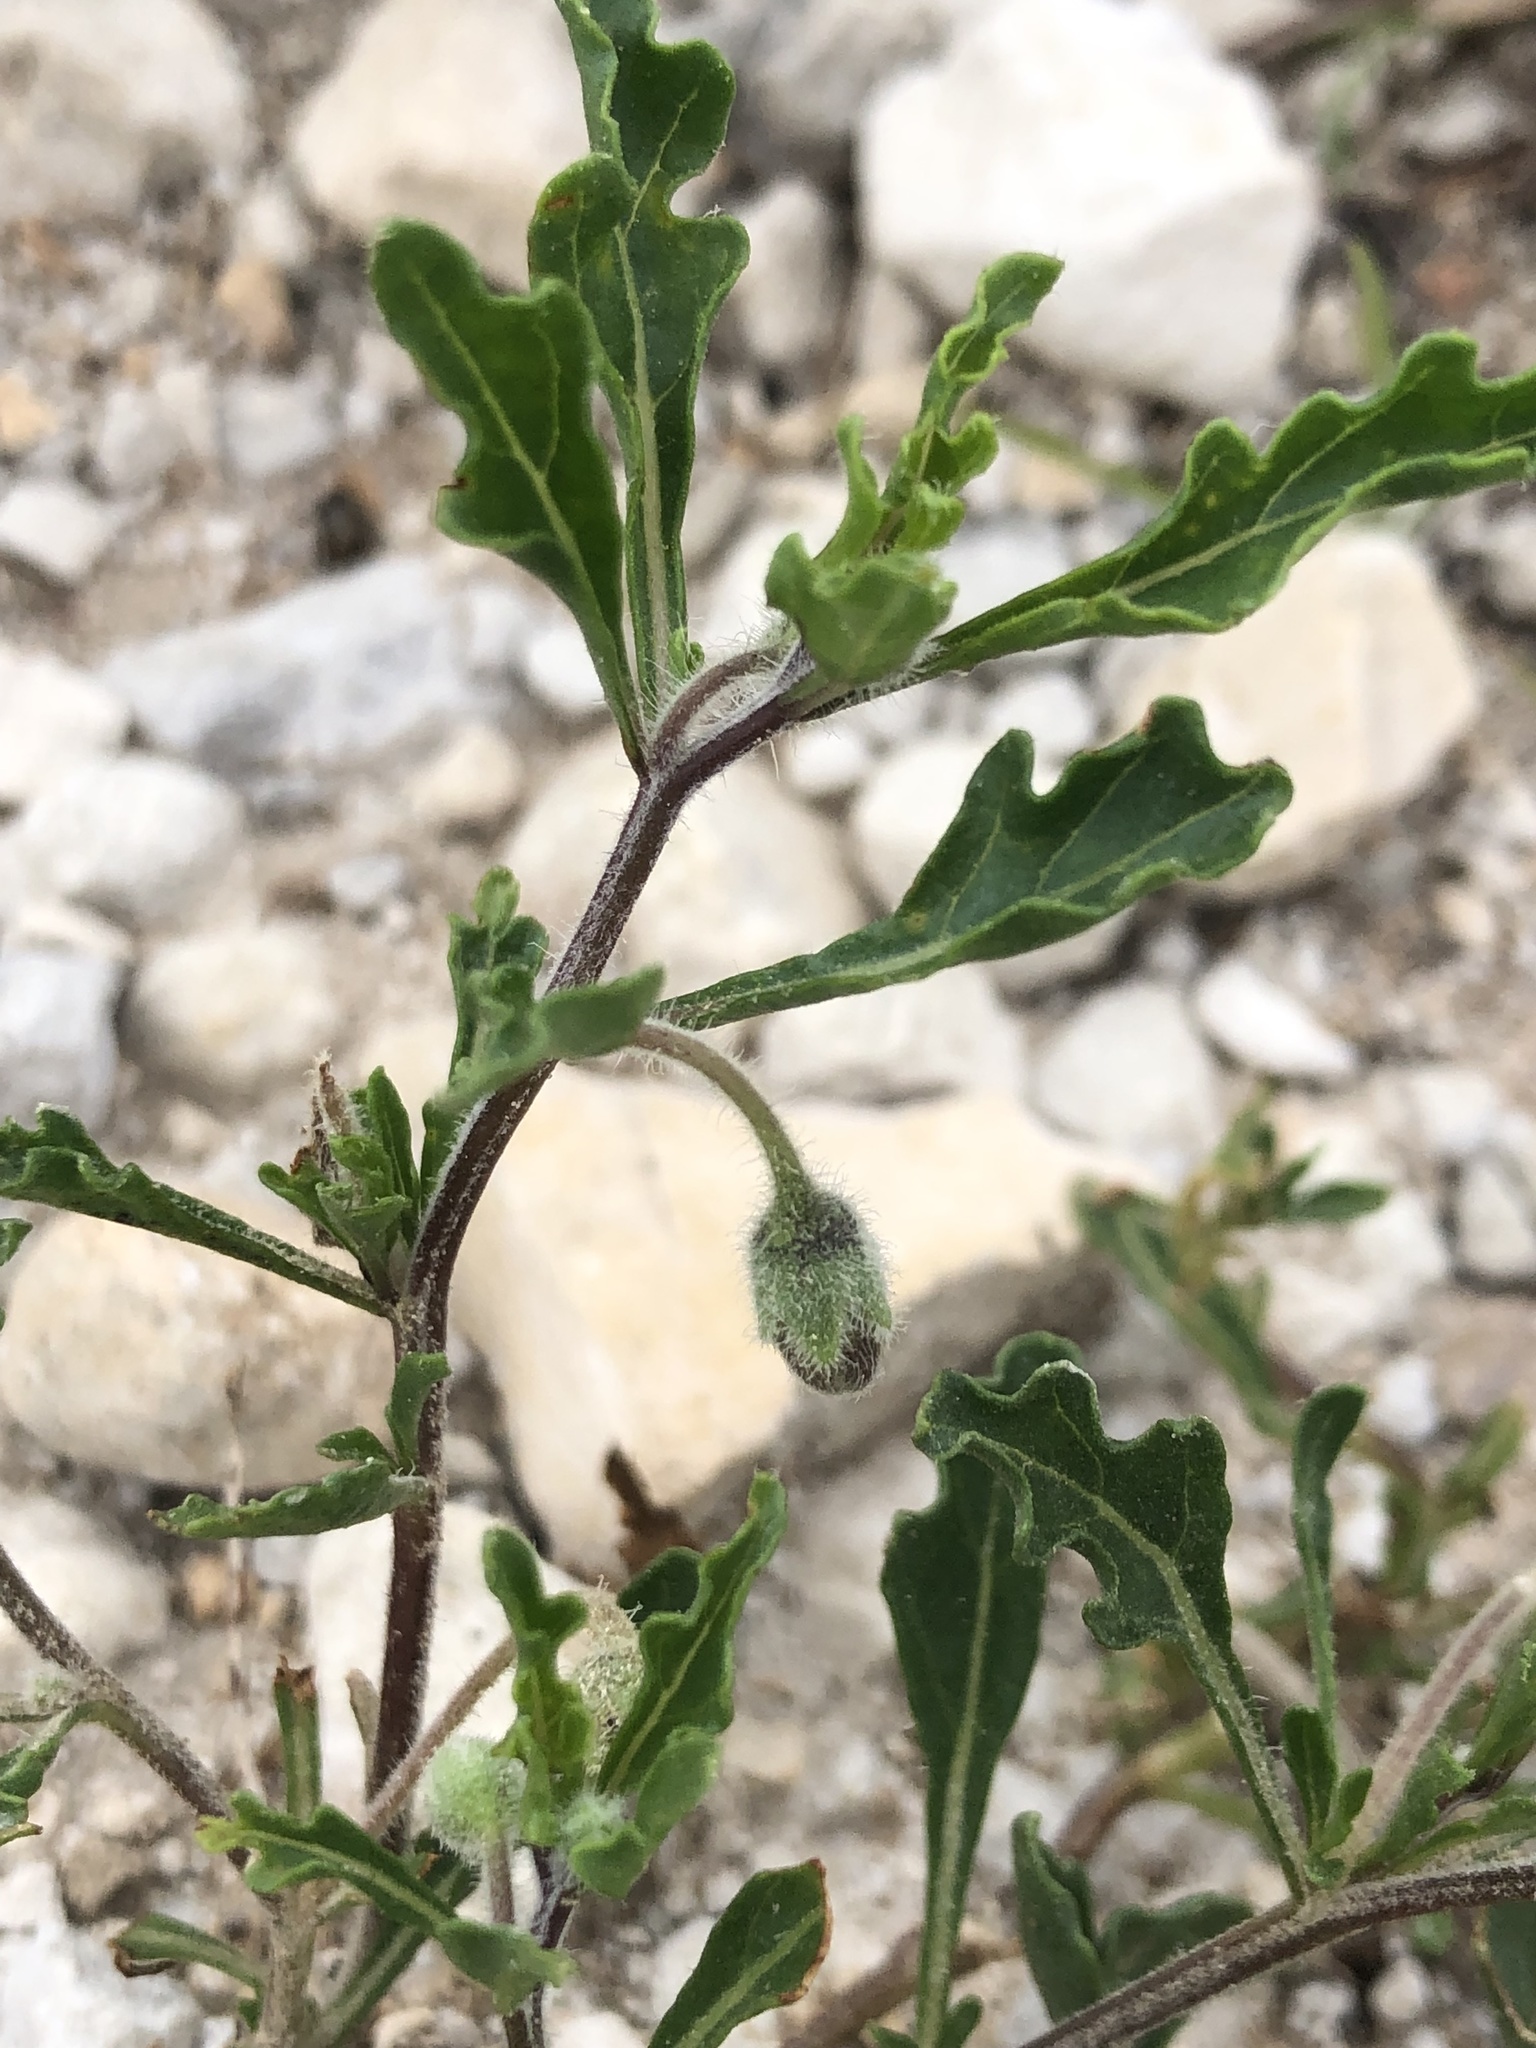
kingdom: Plantae
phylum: Tracheophyta
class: Magnoliopsida
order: Solanales
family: Solanaceae
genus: Chamaesaracha
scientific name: Chamaesaracha edwardsiana
